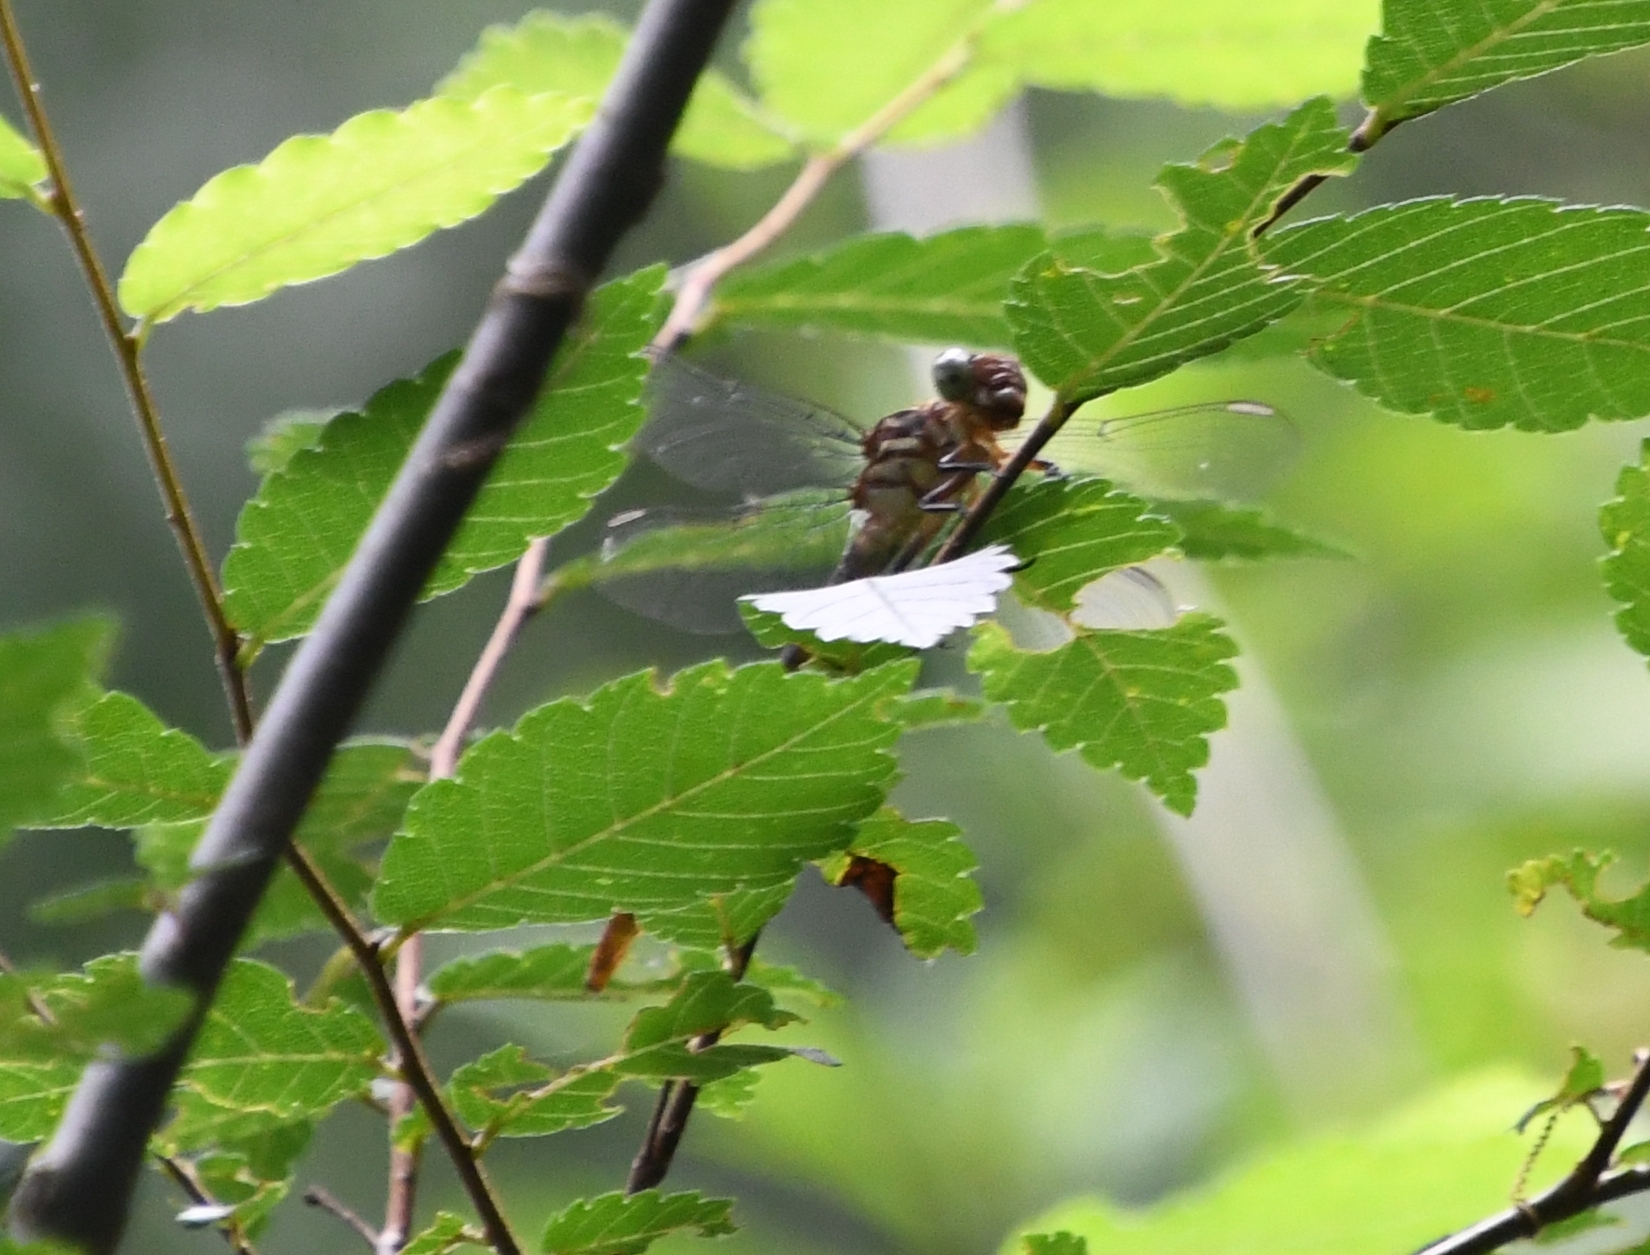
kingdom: Animalia
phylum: Arthropoda
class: Insecta
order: Odonata
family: Gomphidae
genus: Stylurus
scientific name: Stylurus plagiatus
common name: Russet-tipped clubtail
